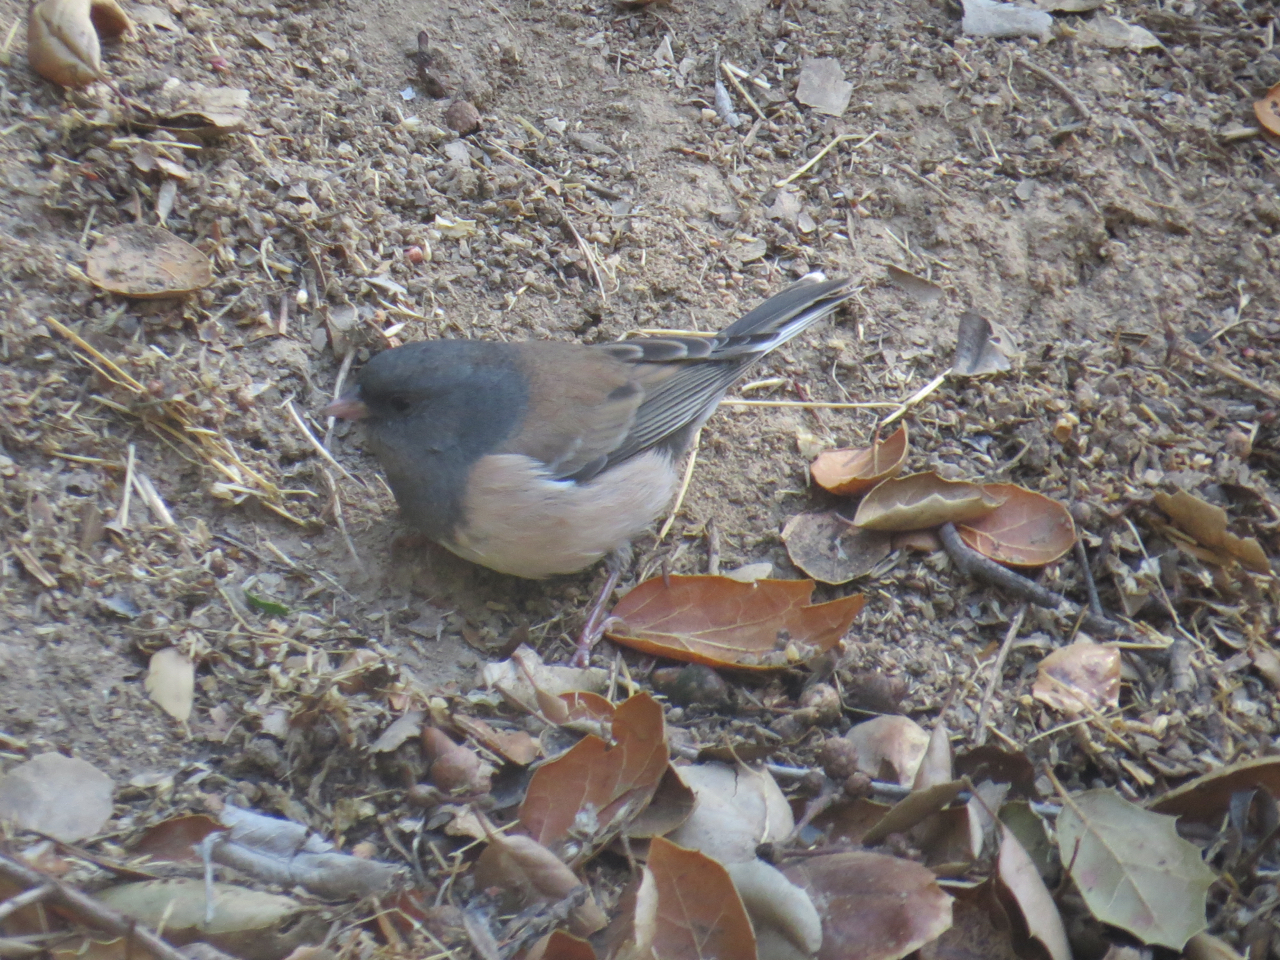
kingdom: Animalia
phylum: Chordata
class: Aves
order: Passeriformes
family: Passerellidae
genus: Junco
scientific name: Junco hyemalis
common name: Dark-eyed junco
